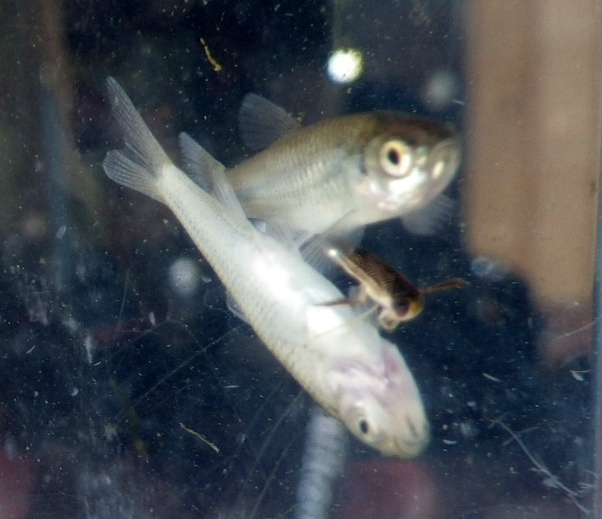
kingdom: Animalia
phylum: Chordata
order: Cypriniformes
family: Cyprinidae
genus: Notropis
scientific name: Notropis
